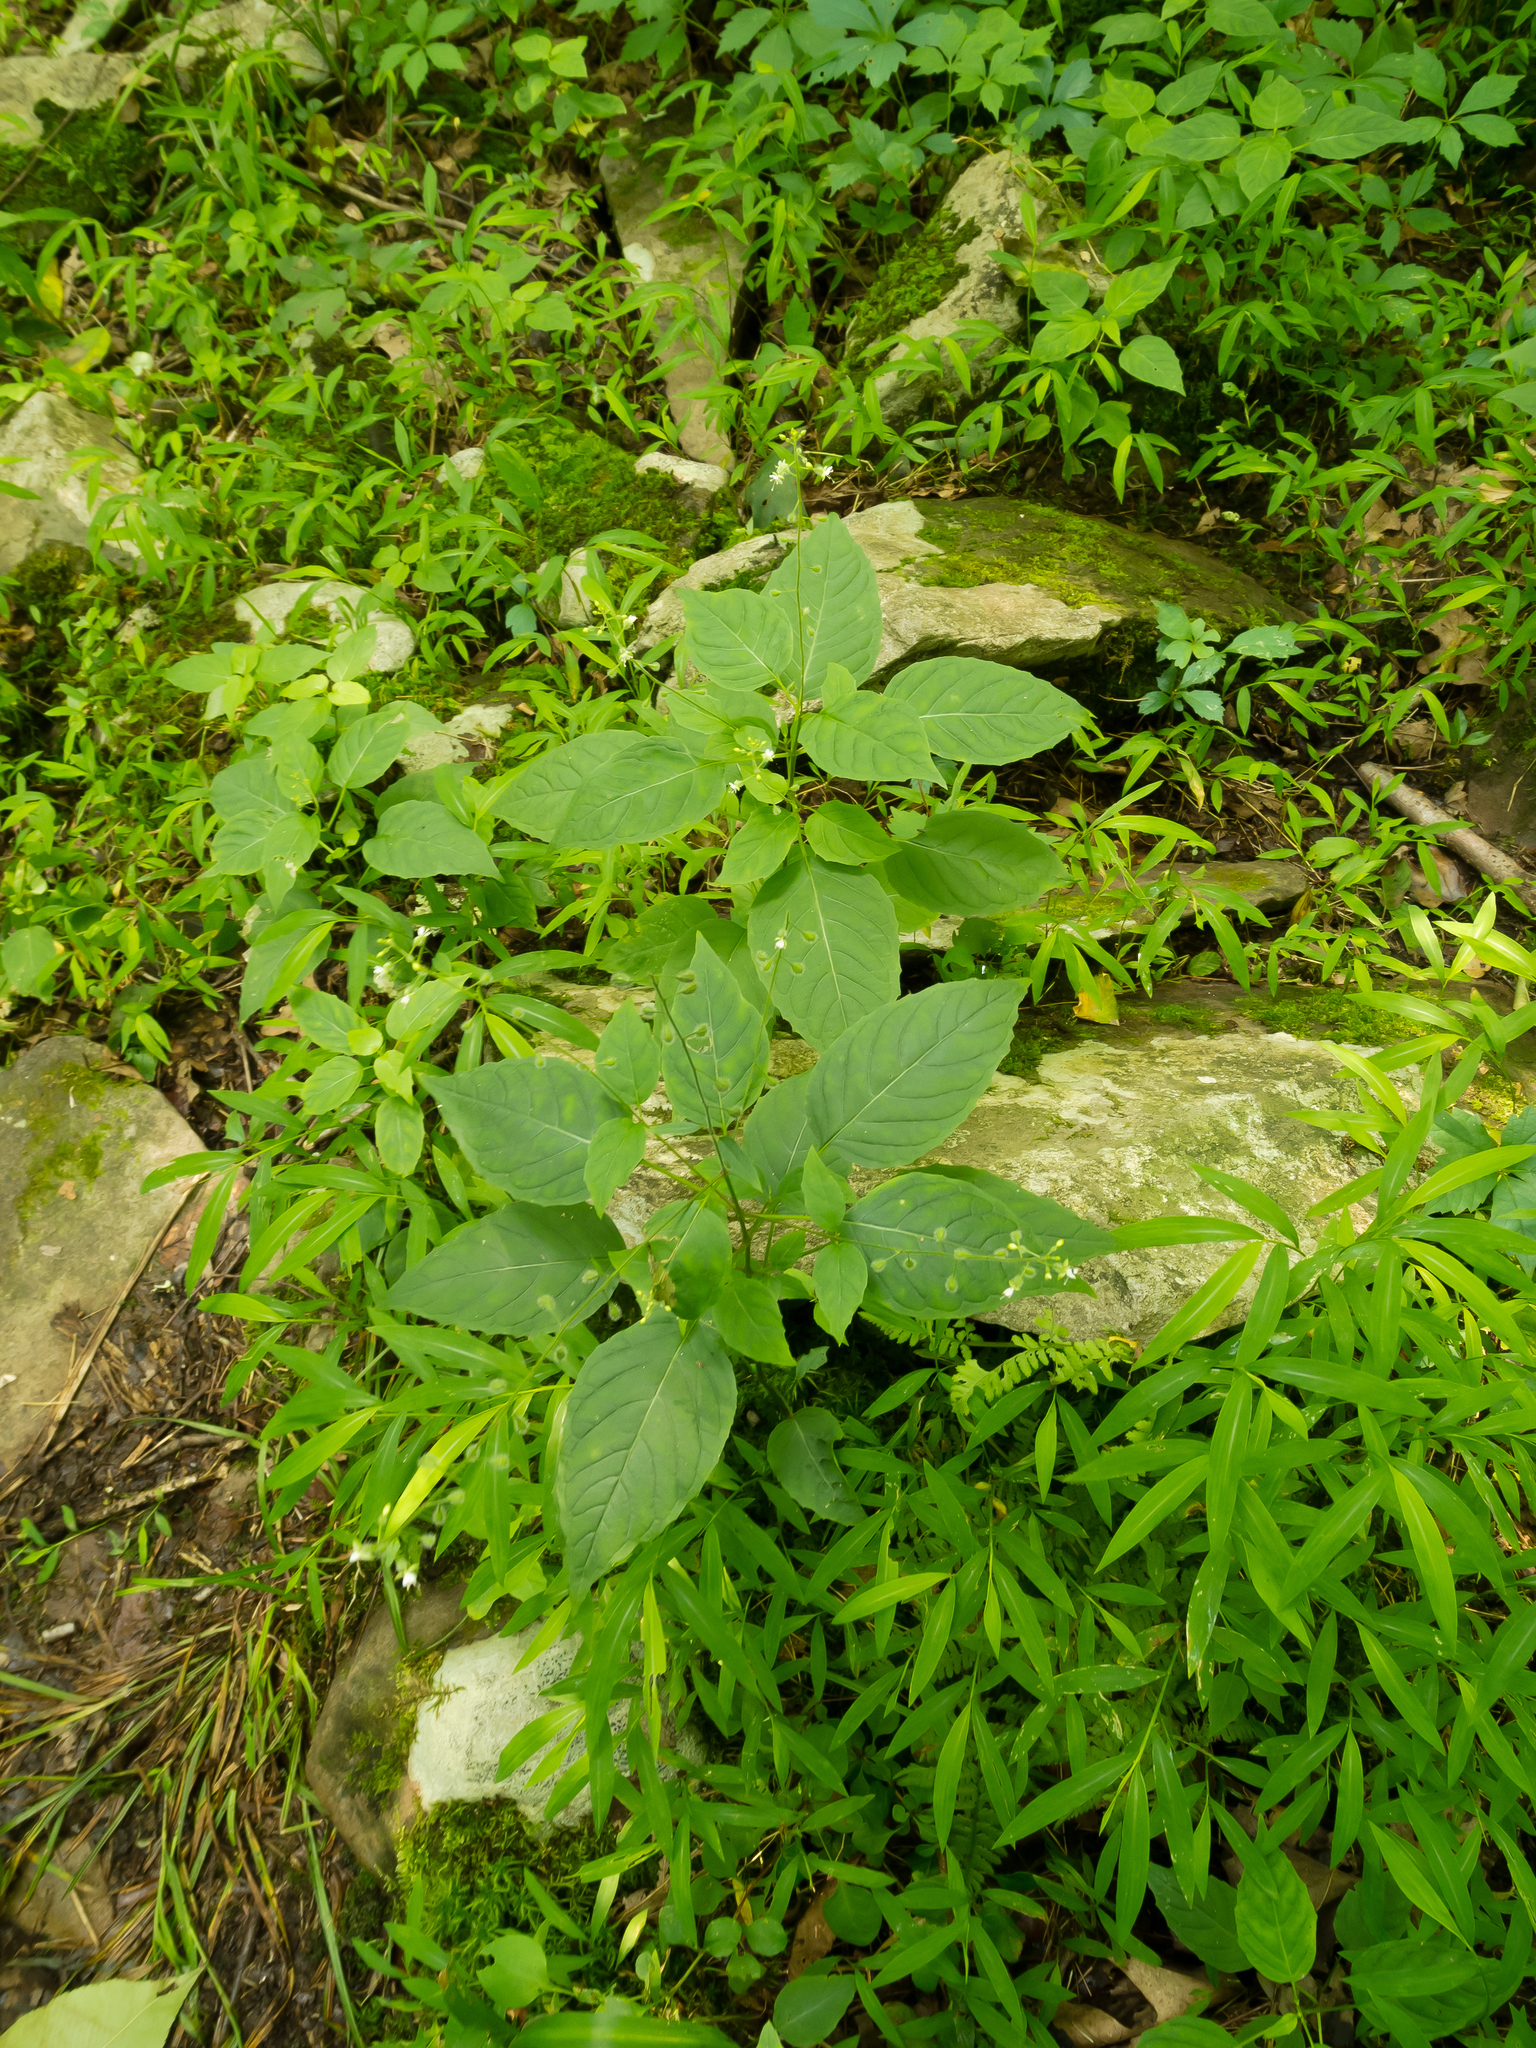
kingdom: Plantae
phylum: Tracheophyta
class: Liliopsida
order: Poales
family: Poaceae
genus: Microstegium
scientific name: Microstegium vimineum
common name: Japanese stiltgrass
